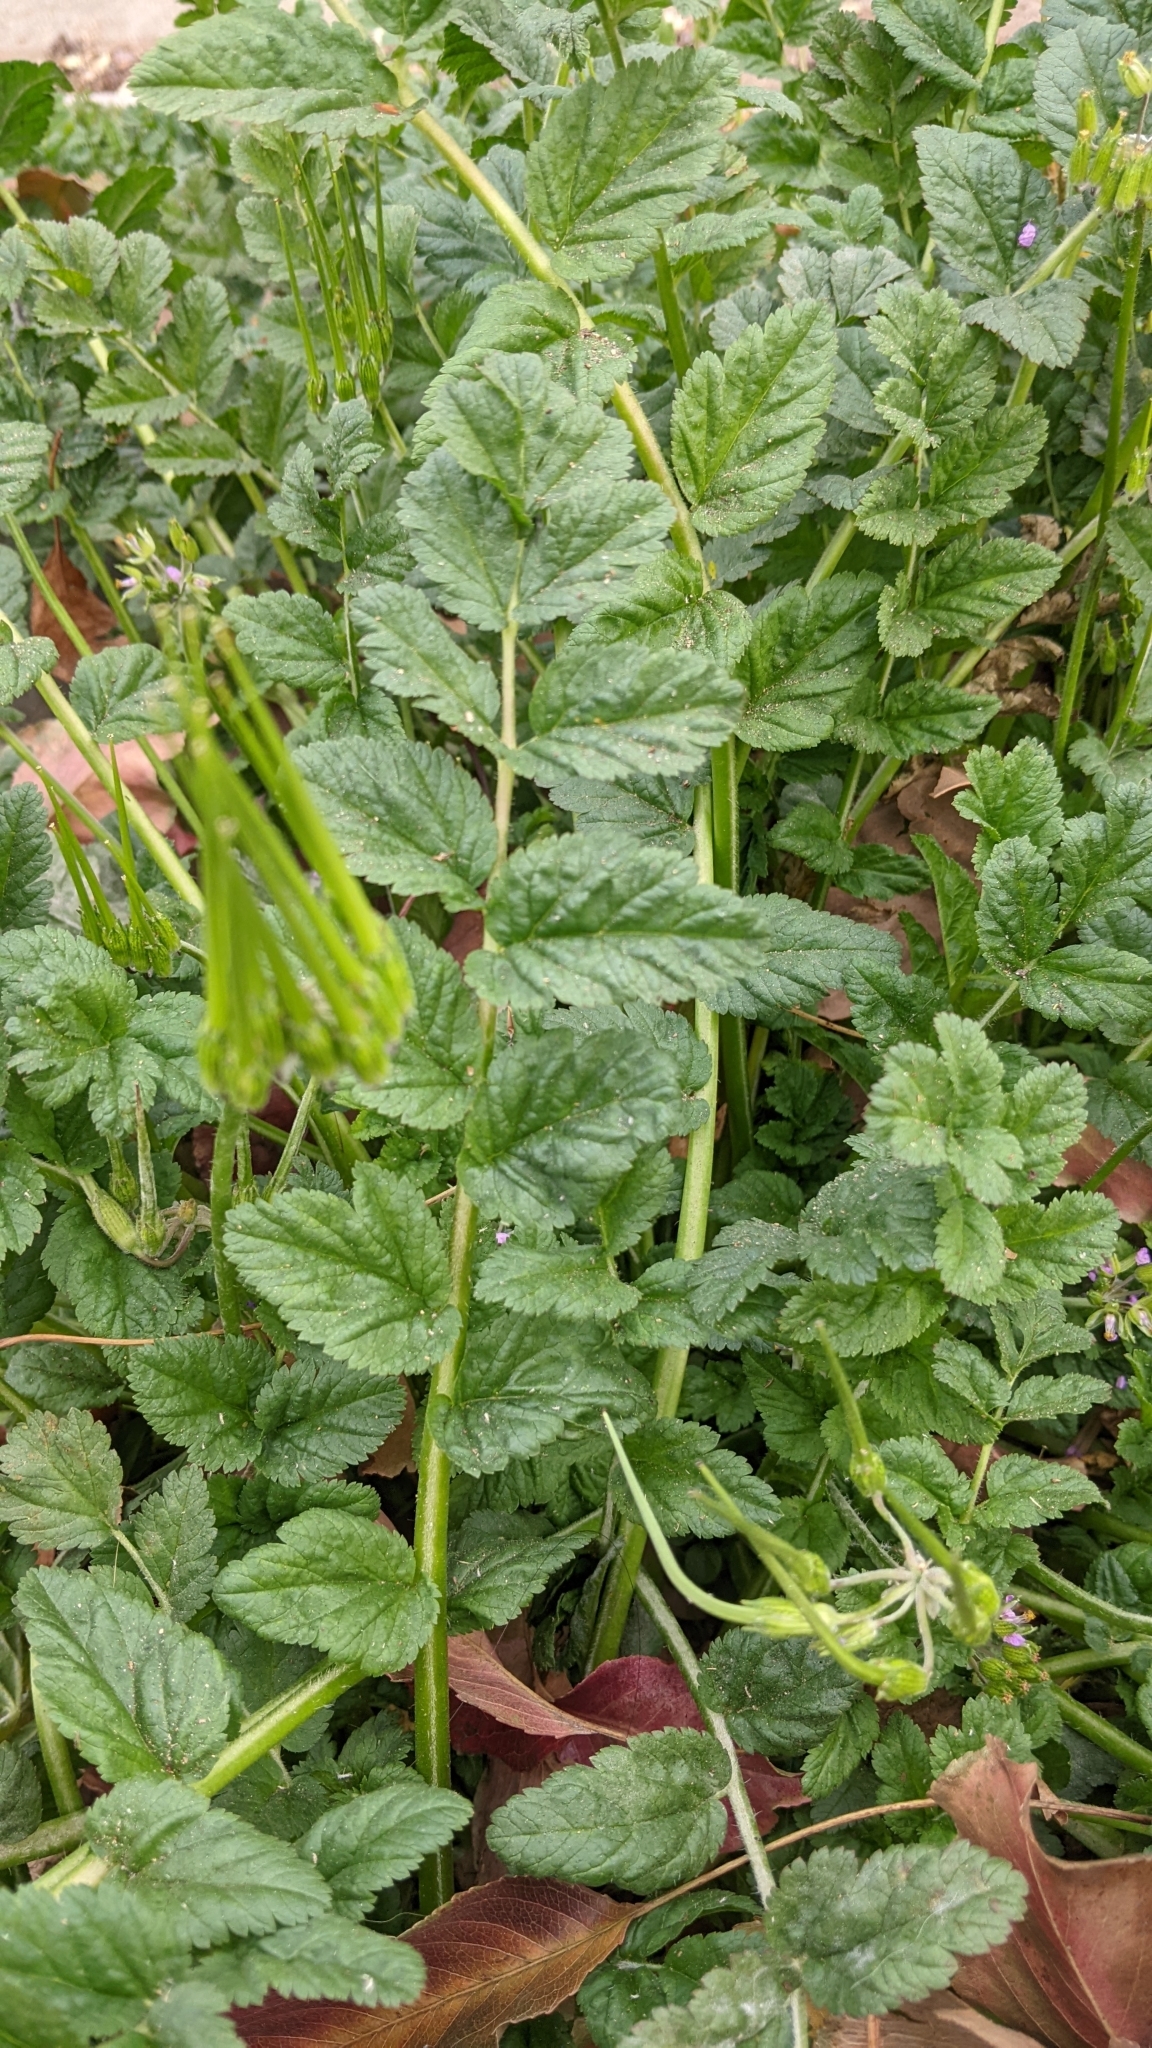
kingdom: Plantae
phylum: Tracheophyta
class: Magnoliopsida
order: Geraniales
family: Geraniaceae
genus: Erodium
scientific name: Erodium moschatum
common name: Musk stork's-bill
